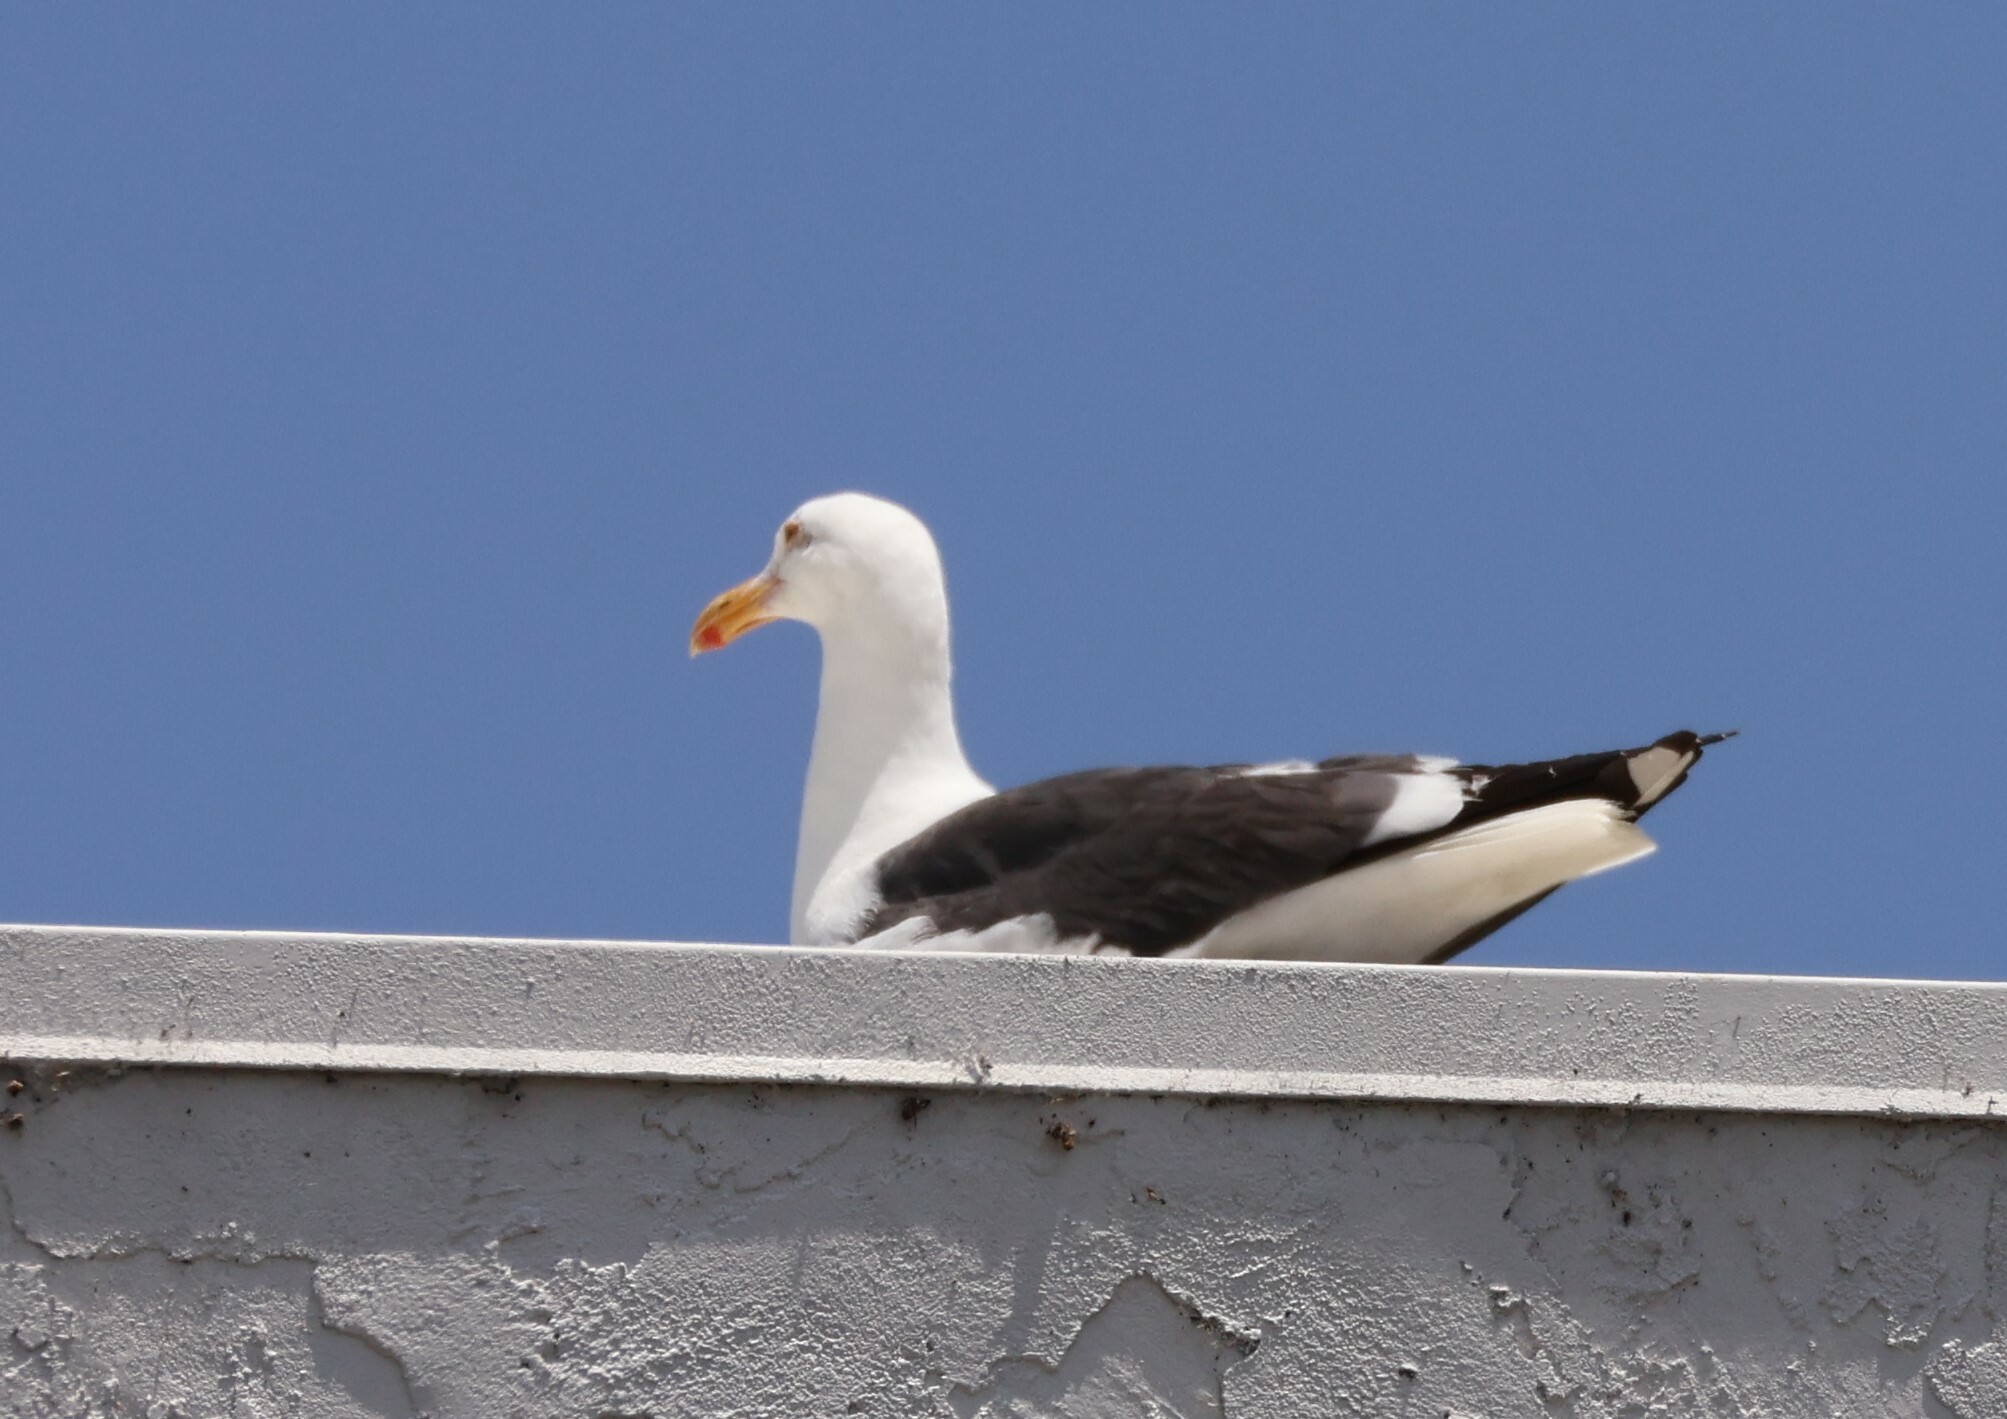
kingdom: Animalia
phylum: Chordata
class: Aves
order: Charadriiformes
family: Laridae
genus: Larus
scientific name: Larus occidentalis
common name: Western gull
